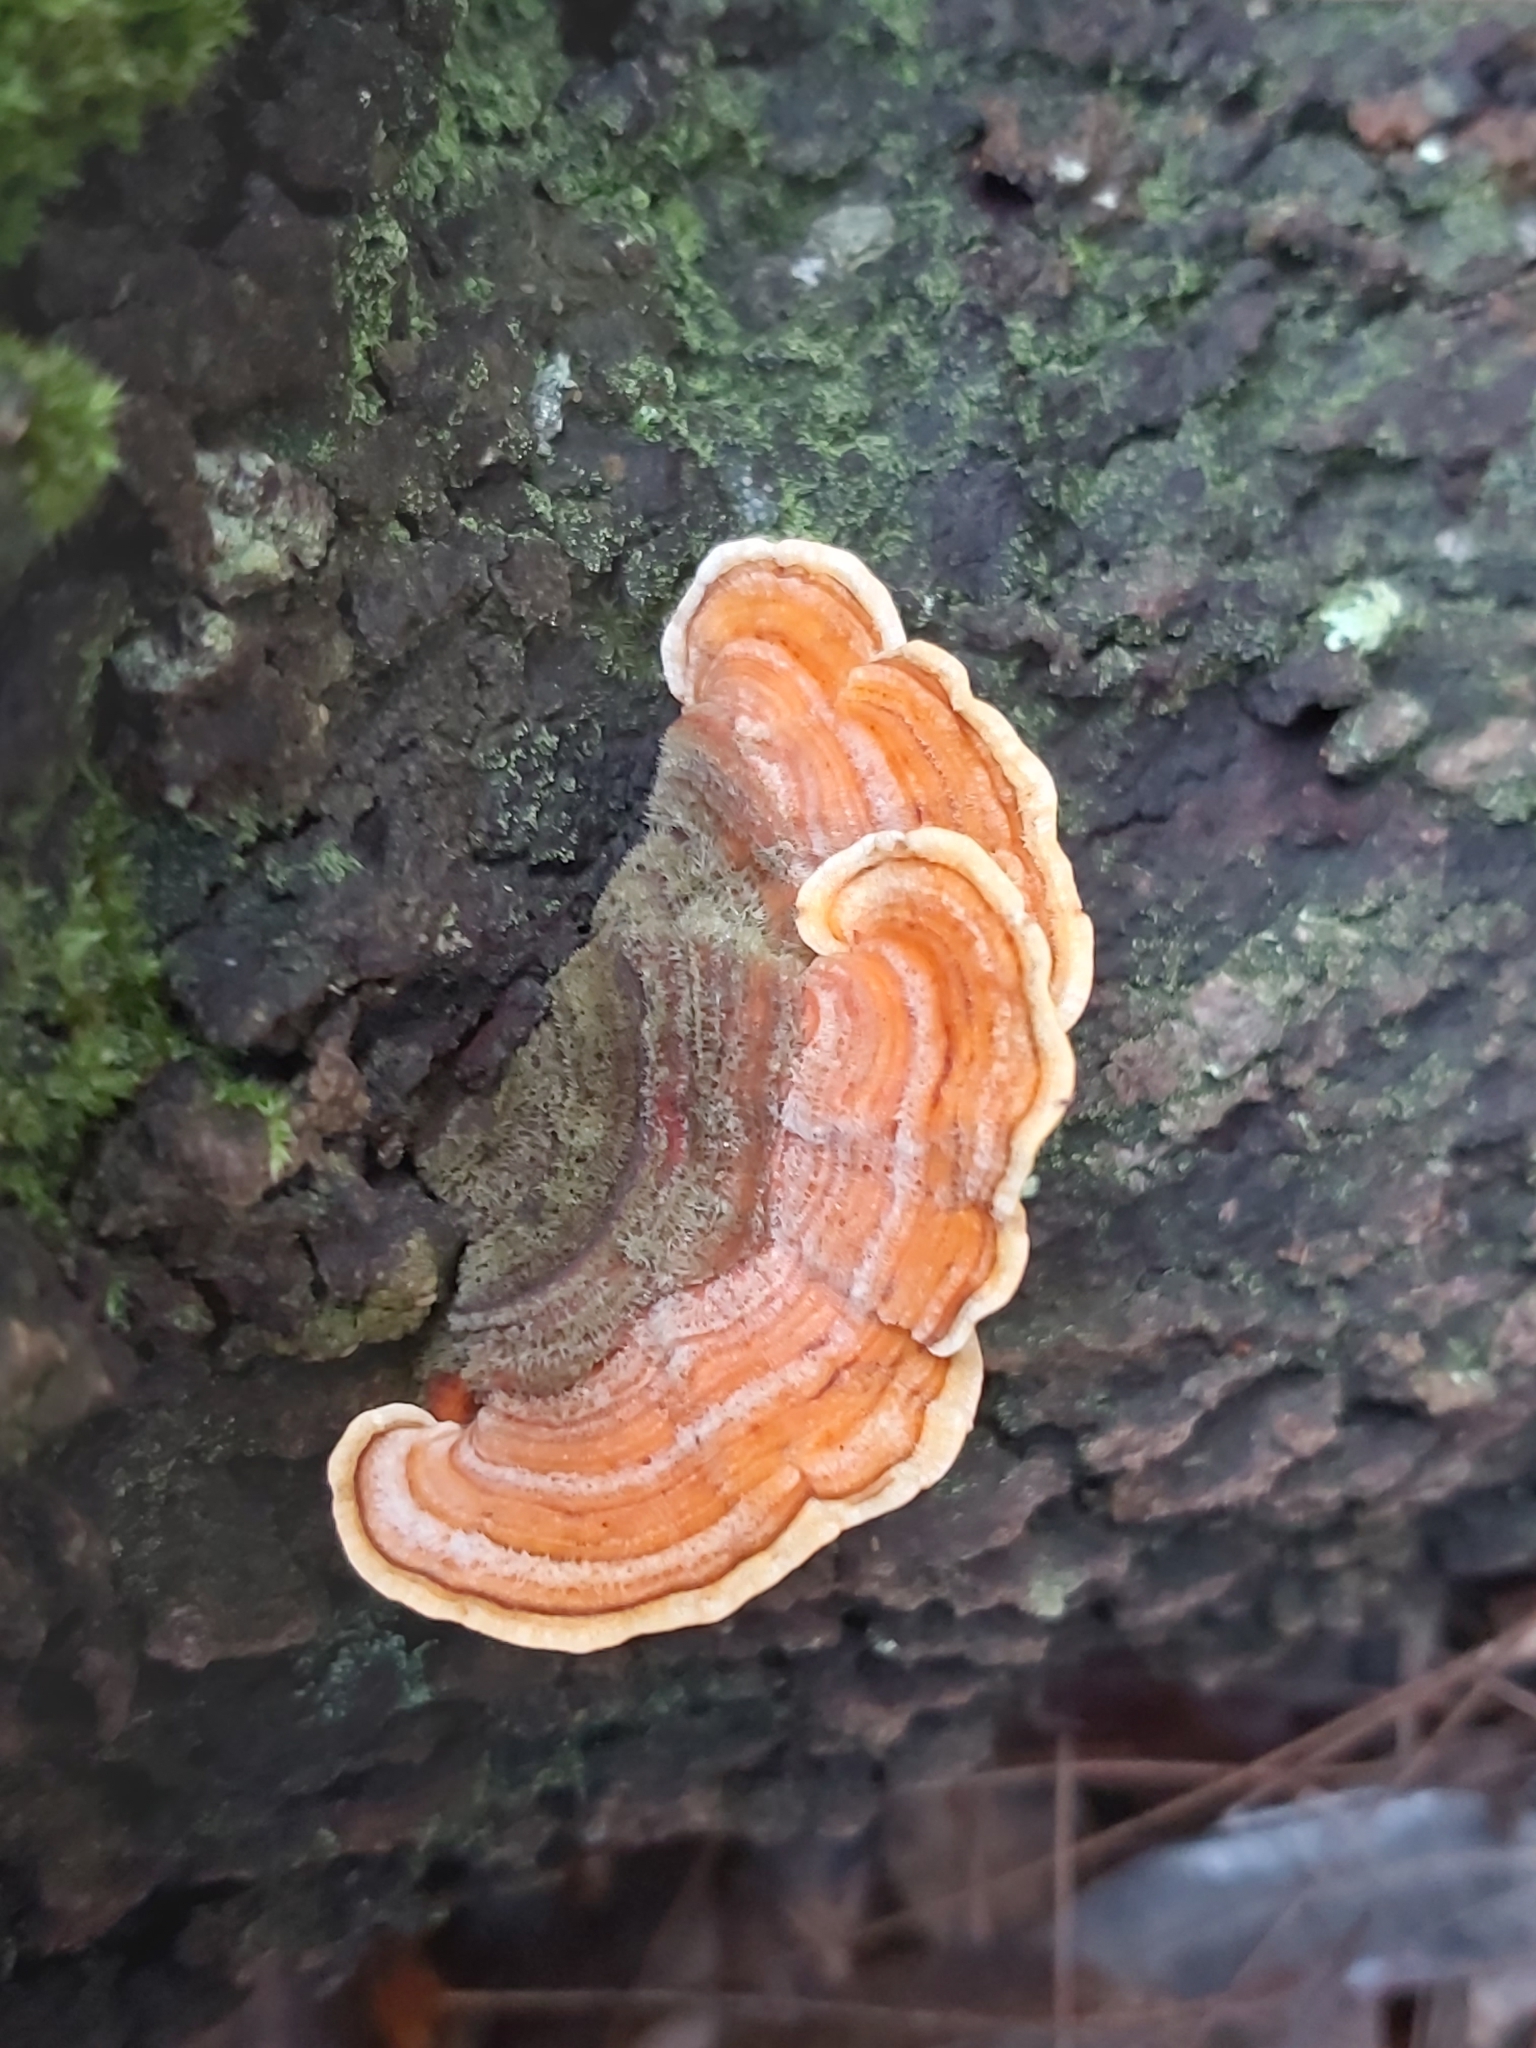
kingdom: Fungi
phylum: Basidiomycota
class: Agaricomycetes
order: Russulales
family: Stereaceae
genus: Stereum
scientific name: Stereum versicolor
